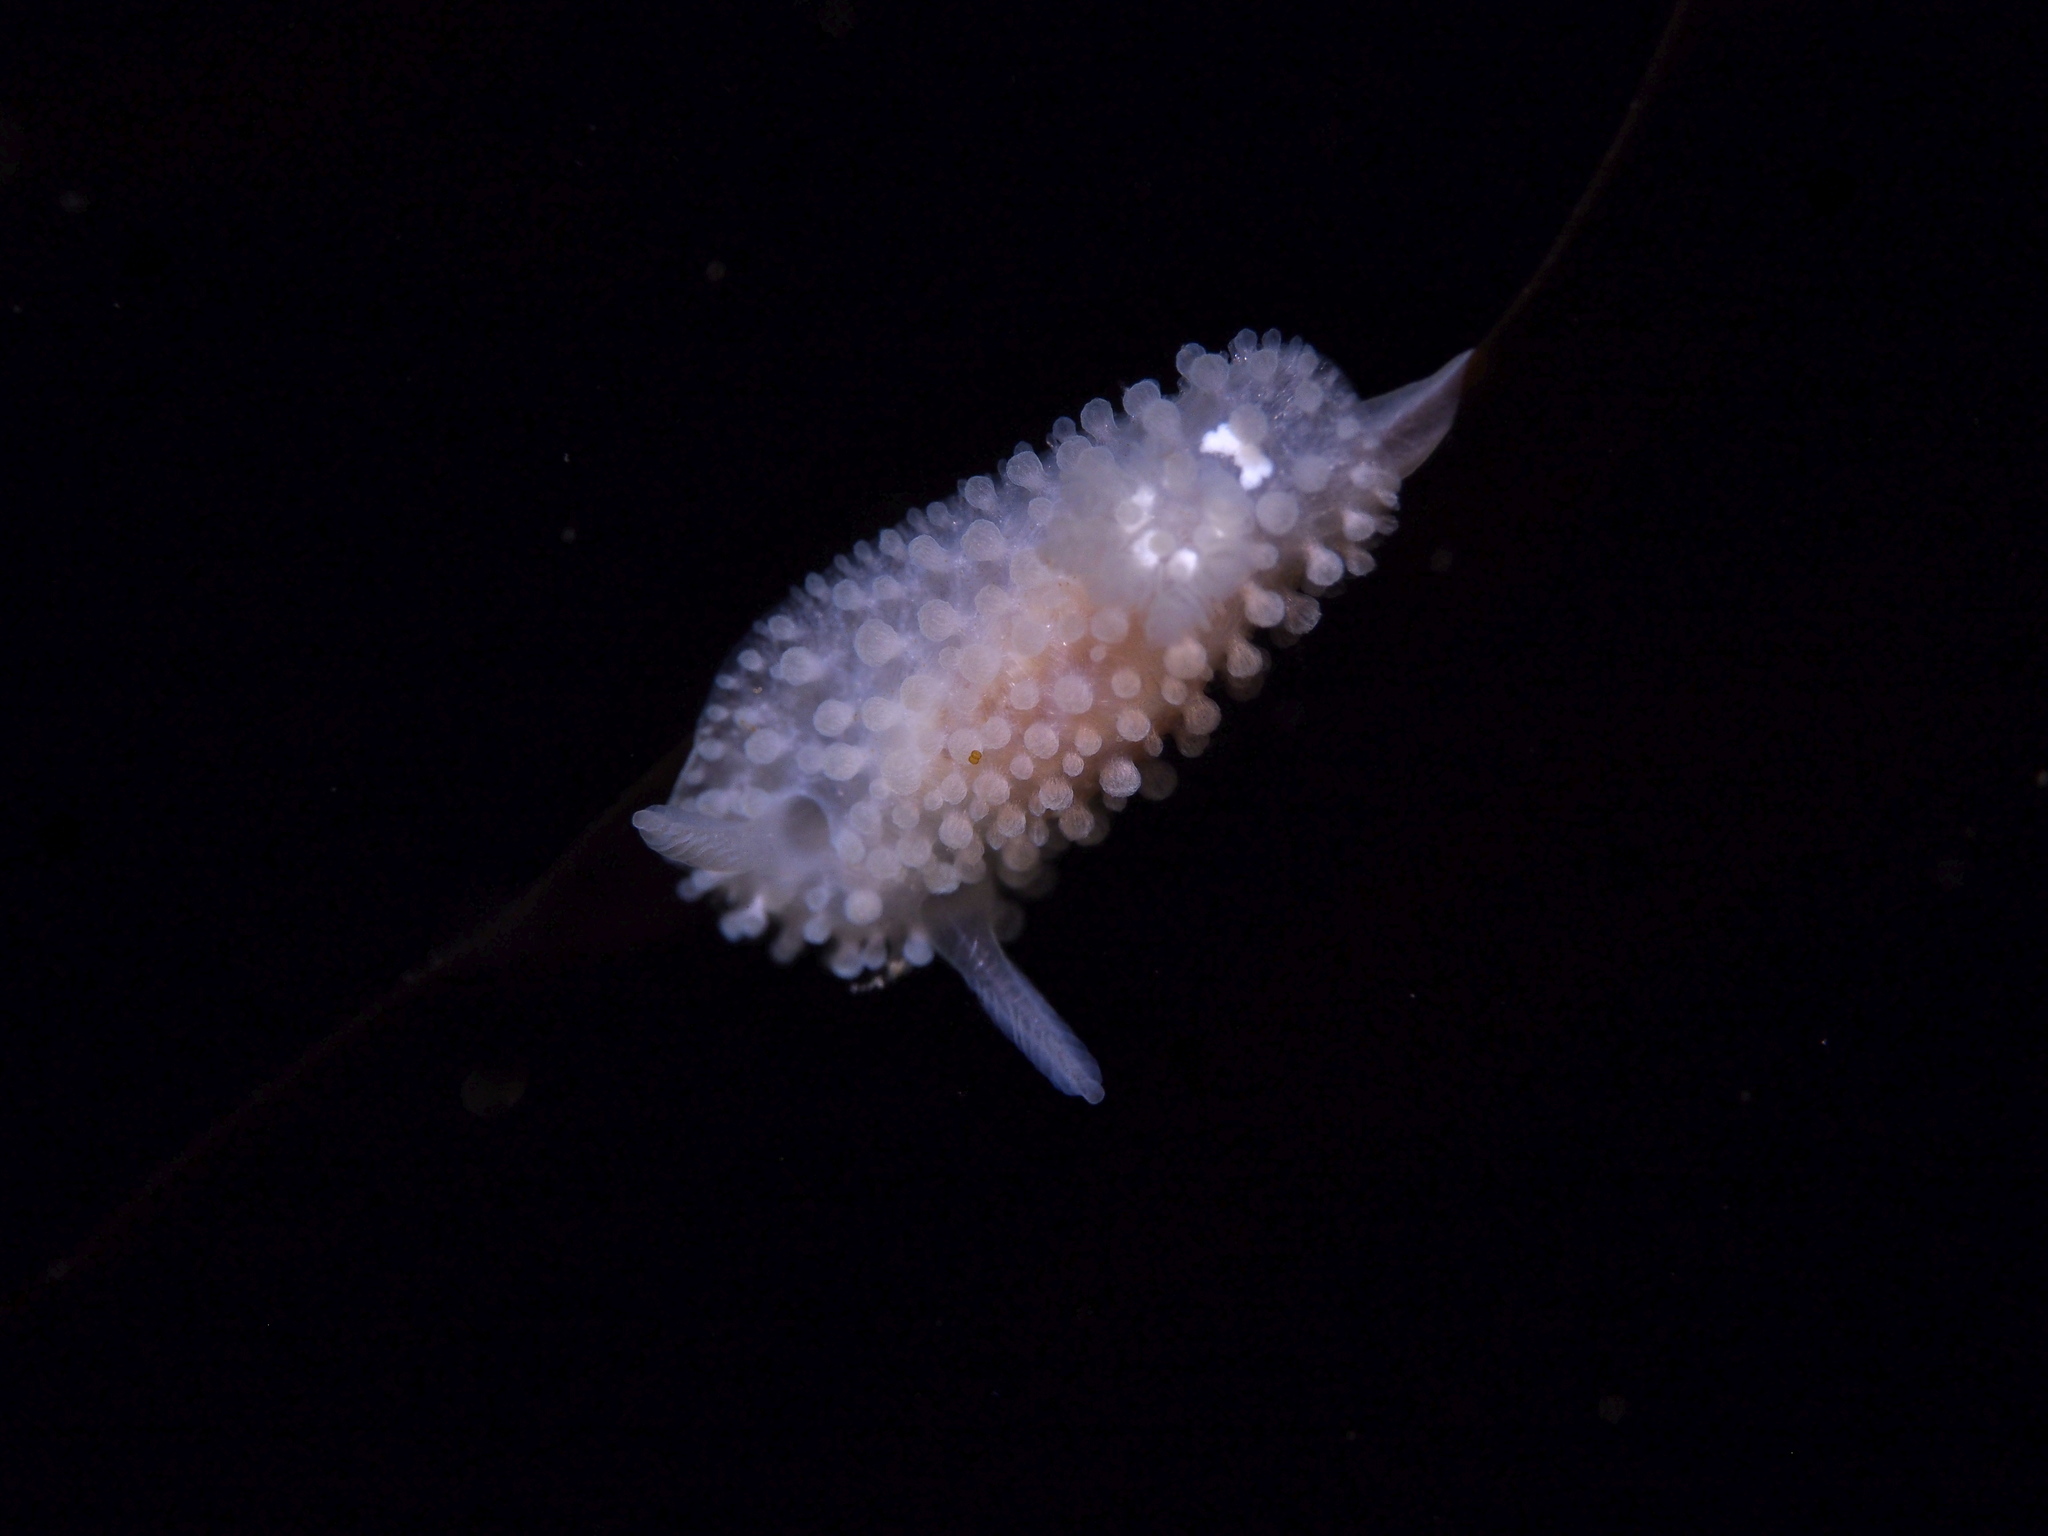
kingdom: Animalia
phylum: Mollusca
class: Gastropoda
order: Nudibranchia
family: Onchidorididae
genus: Onchidoris
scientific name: Onchidoris muricata
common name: Rough doris
